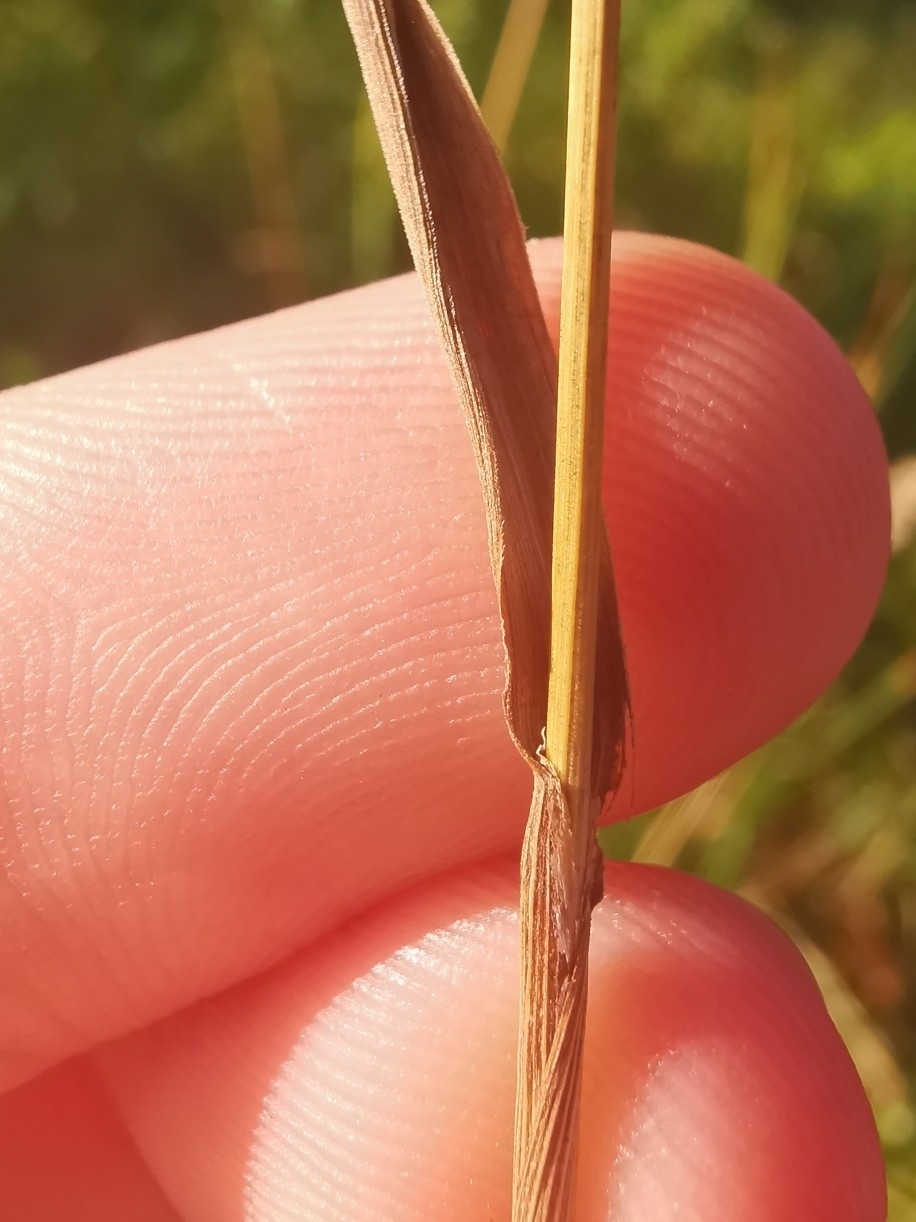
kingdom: Plantae
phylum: Tracheophyta
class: Liliopsida
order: Poales
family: Poaceae
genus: Phleum
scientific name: Phleum pratense
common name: Timothy grass
